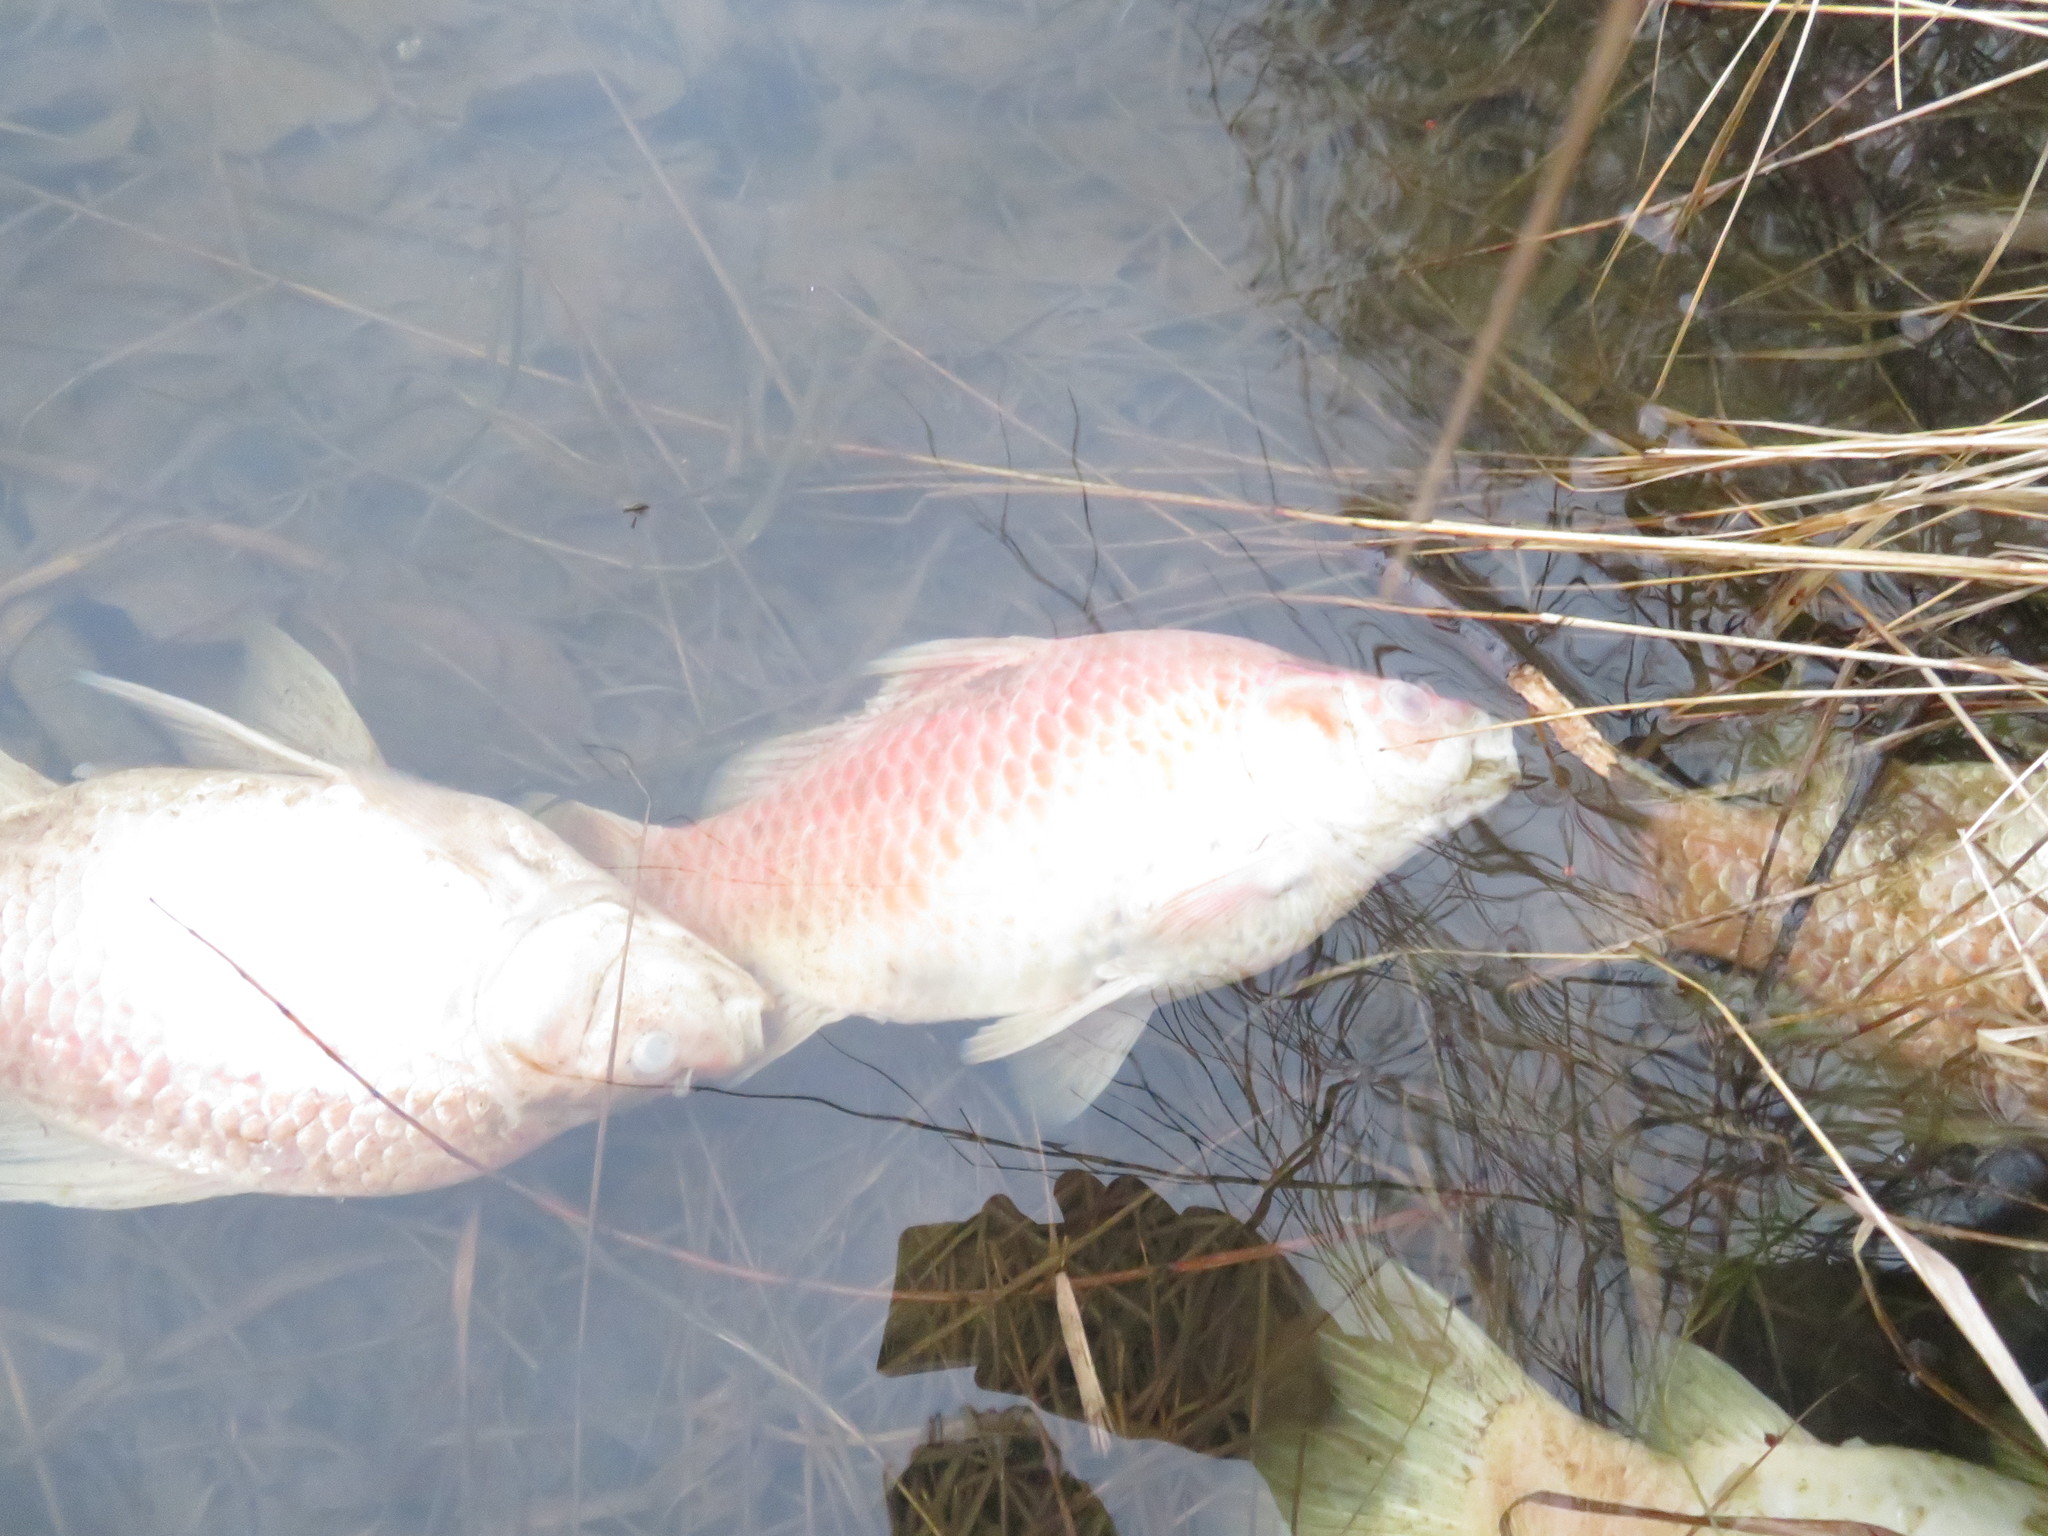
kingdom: Animalia
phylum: Chordata
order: Cypriniformes
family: Cyprinidae
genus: Carassius
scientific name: Carassius auratus
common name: Goldfish
